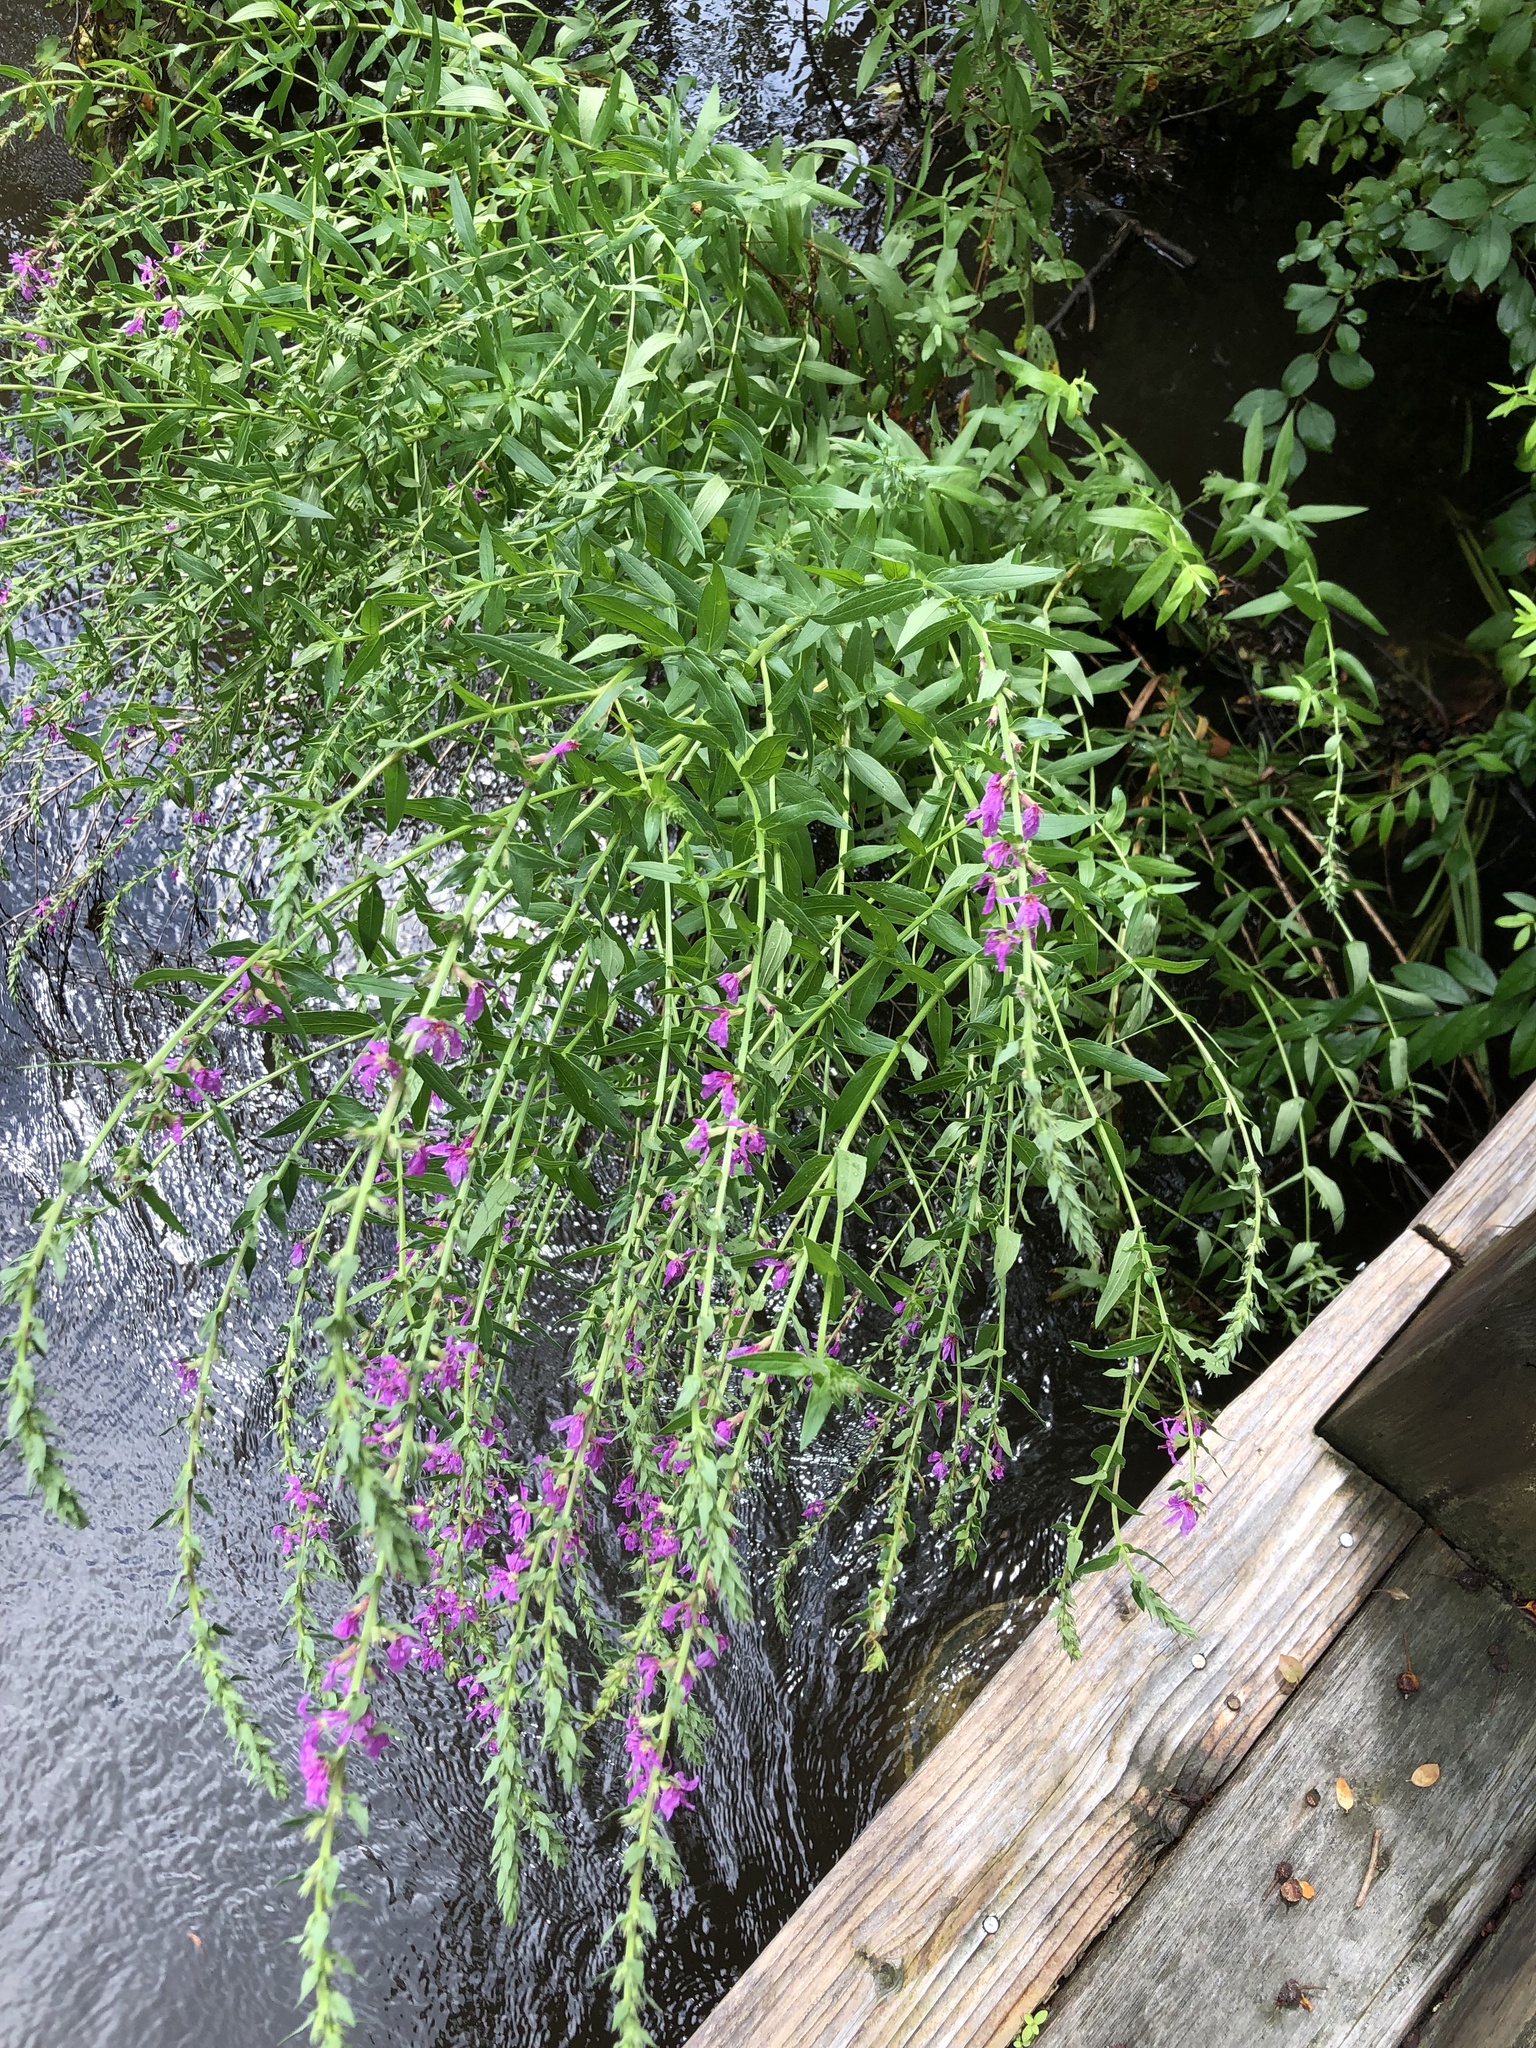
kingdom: Plantae
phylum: Tracheophyta
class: Magnoliopsida
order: Myrtales
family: Lythraceae
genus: Lythrum
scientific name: Lythrum salicaria
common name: Purple loosestrife
